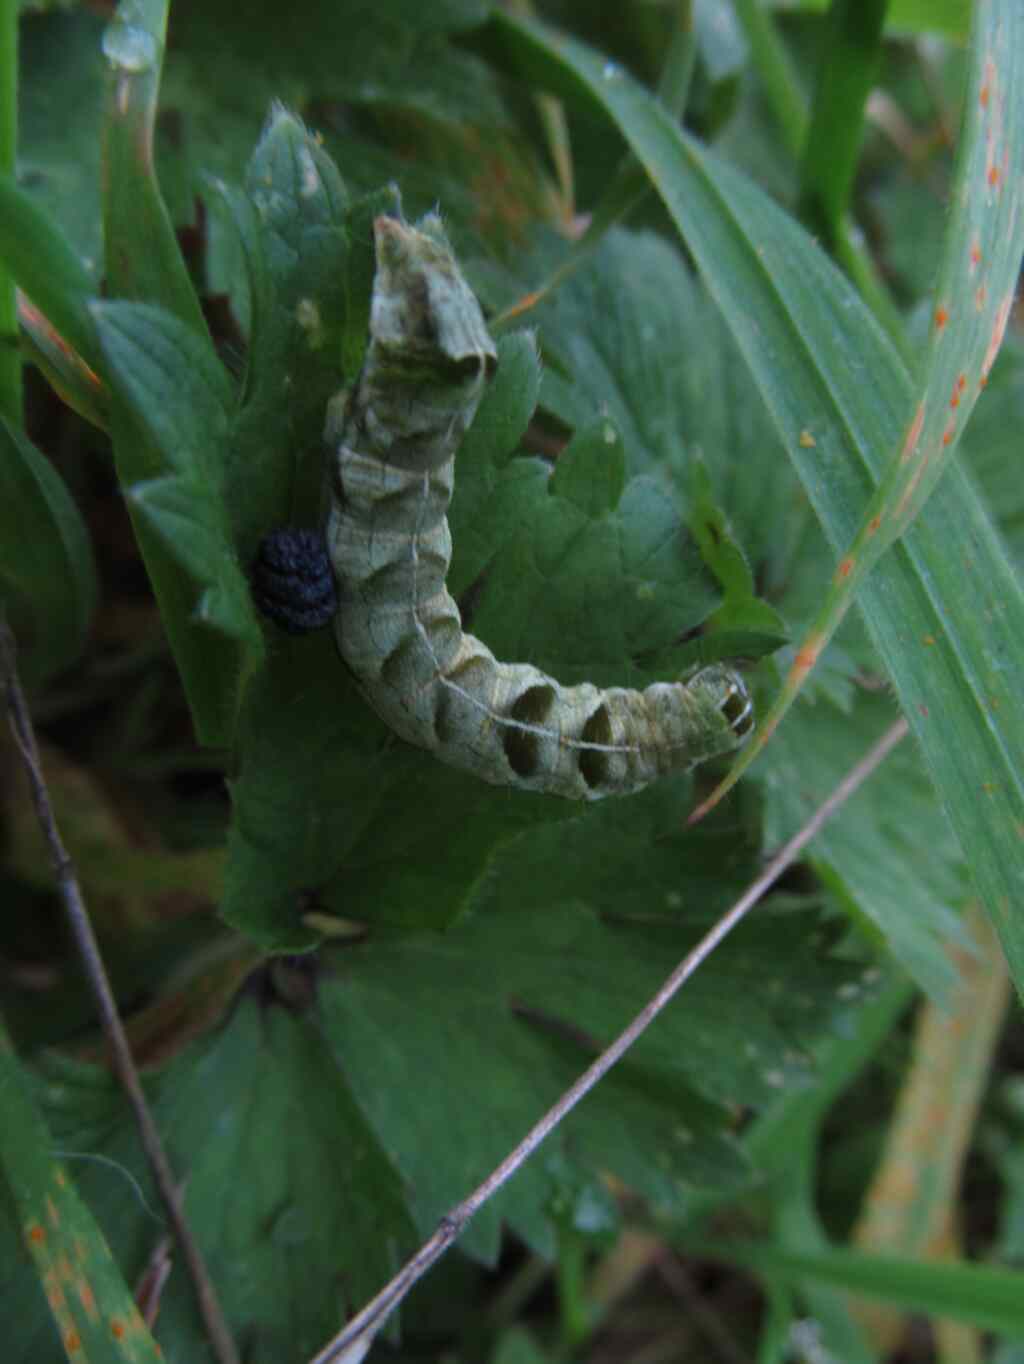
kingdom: Animalia
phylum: Arthropoda
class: Insecta
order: Lepidoptera
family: Noctuidae
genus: Melanchra
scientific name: Melanchra persicariae
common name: Dot moth
